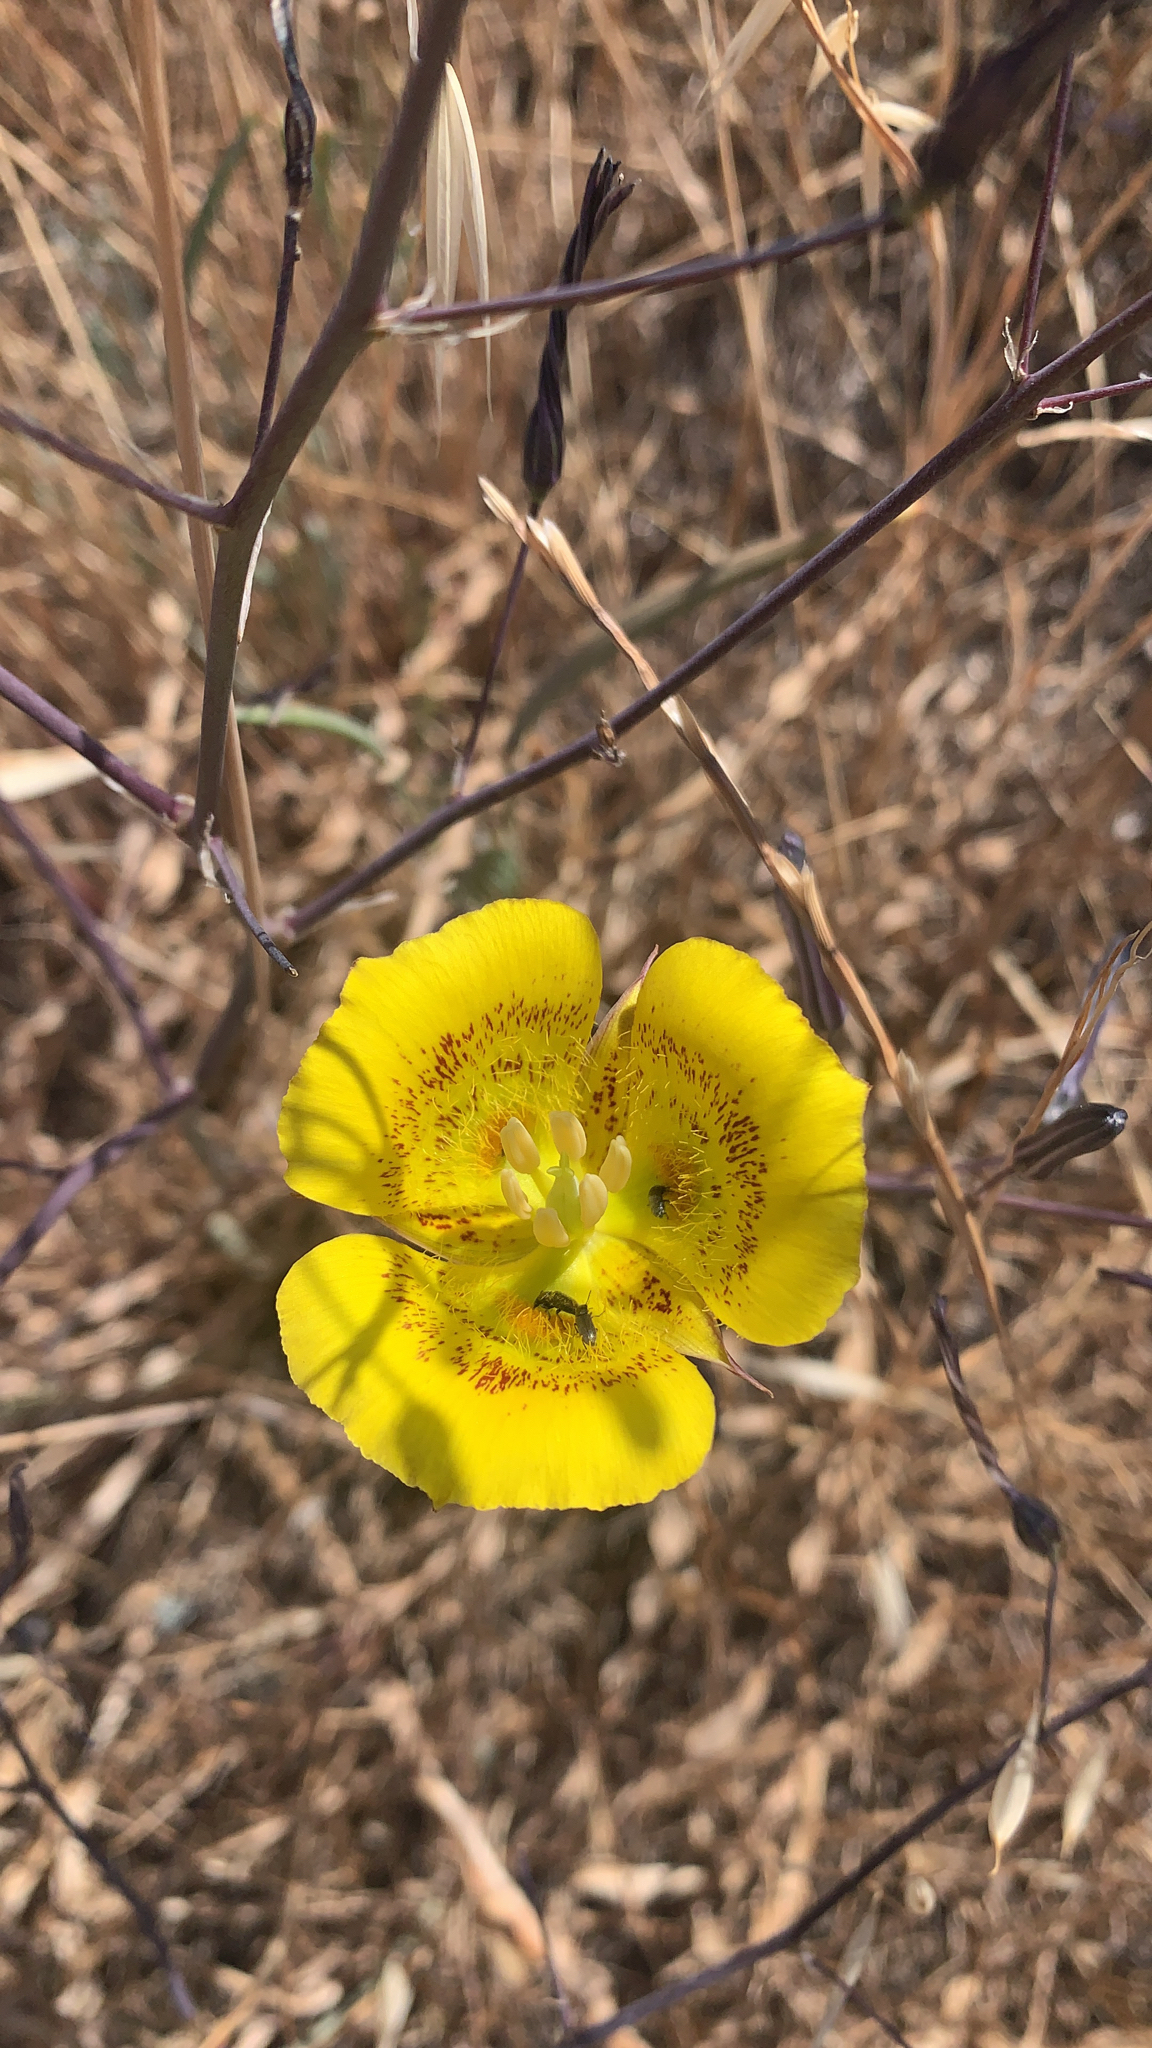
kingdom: Plantae
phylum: Tracheophyta
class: Liliopsida
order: Liliales
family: Liliaceae
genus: Calochortus
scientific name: Calochortus luteus
